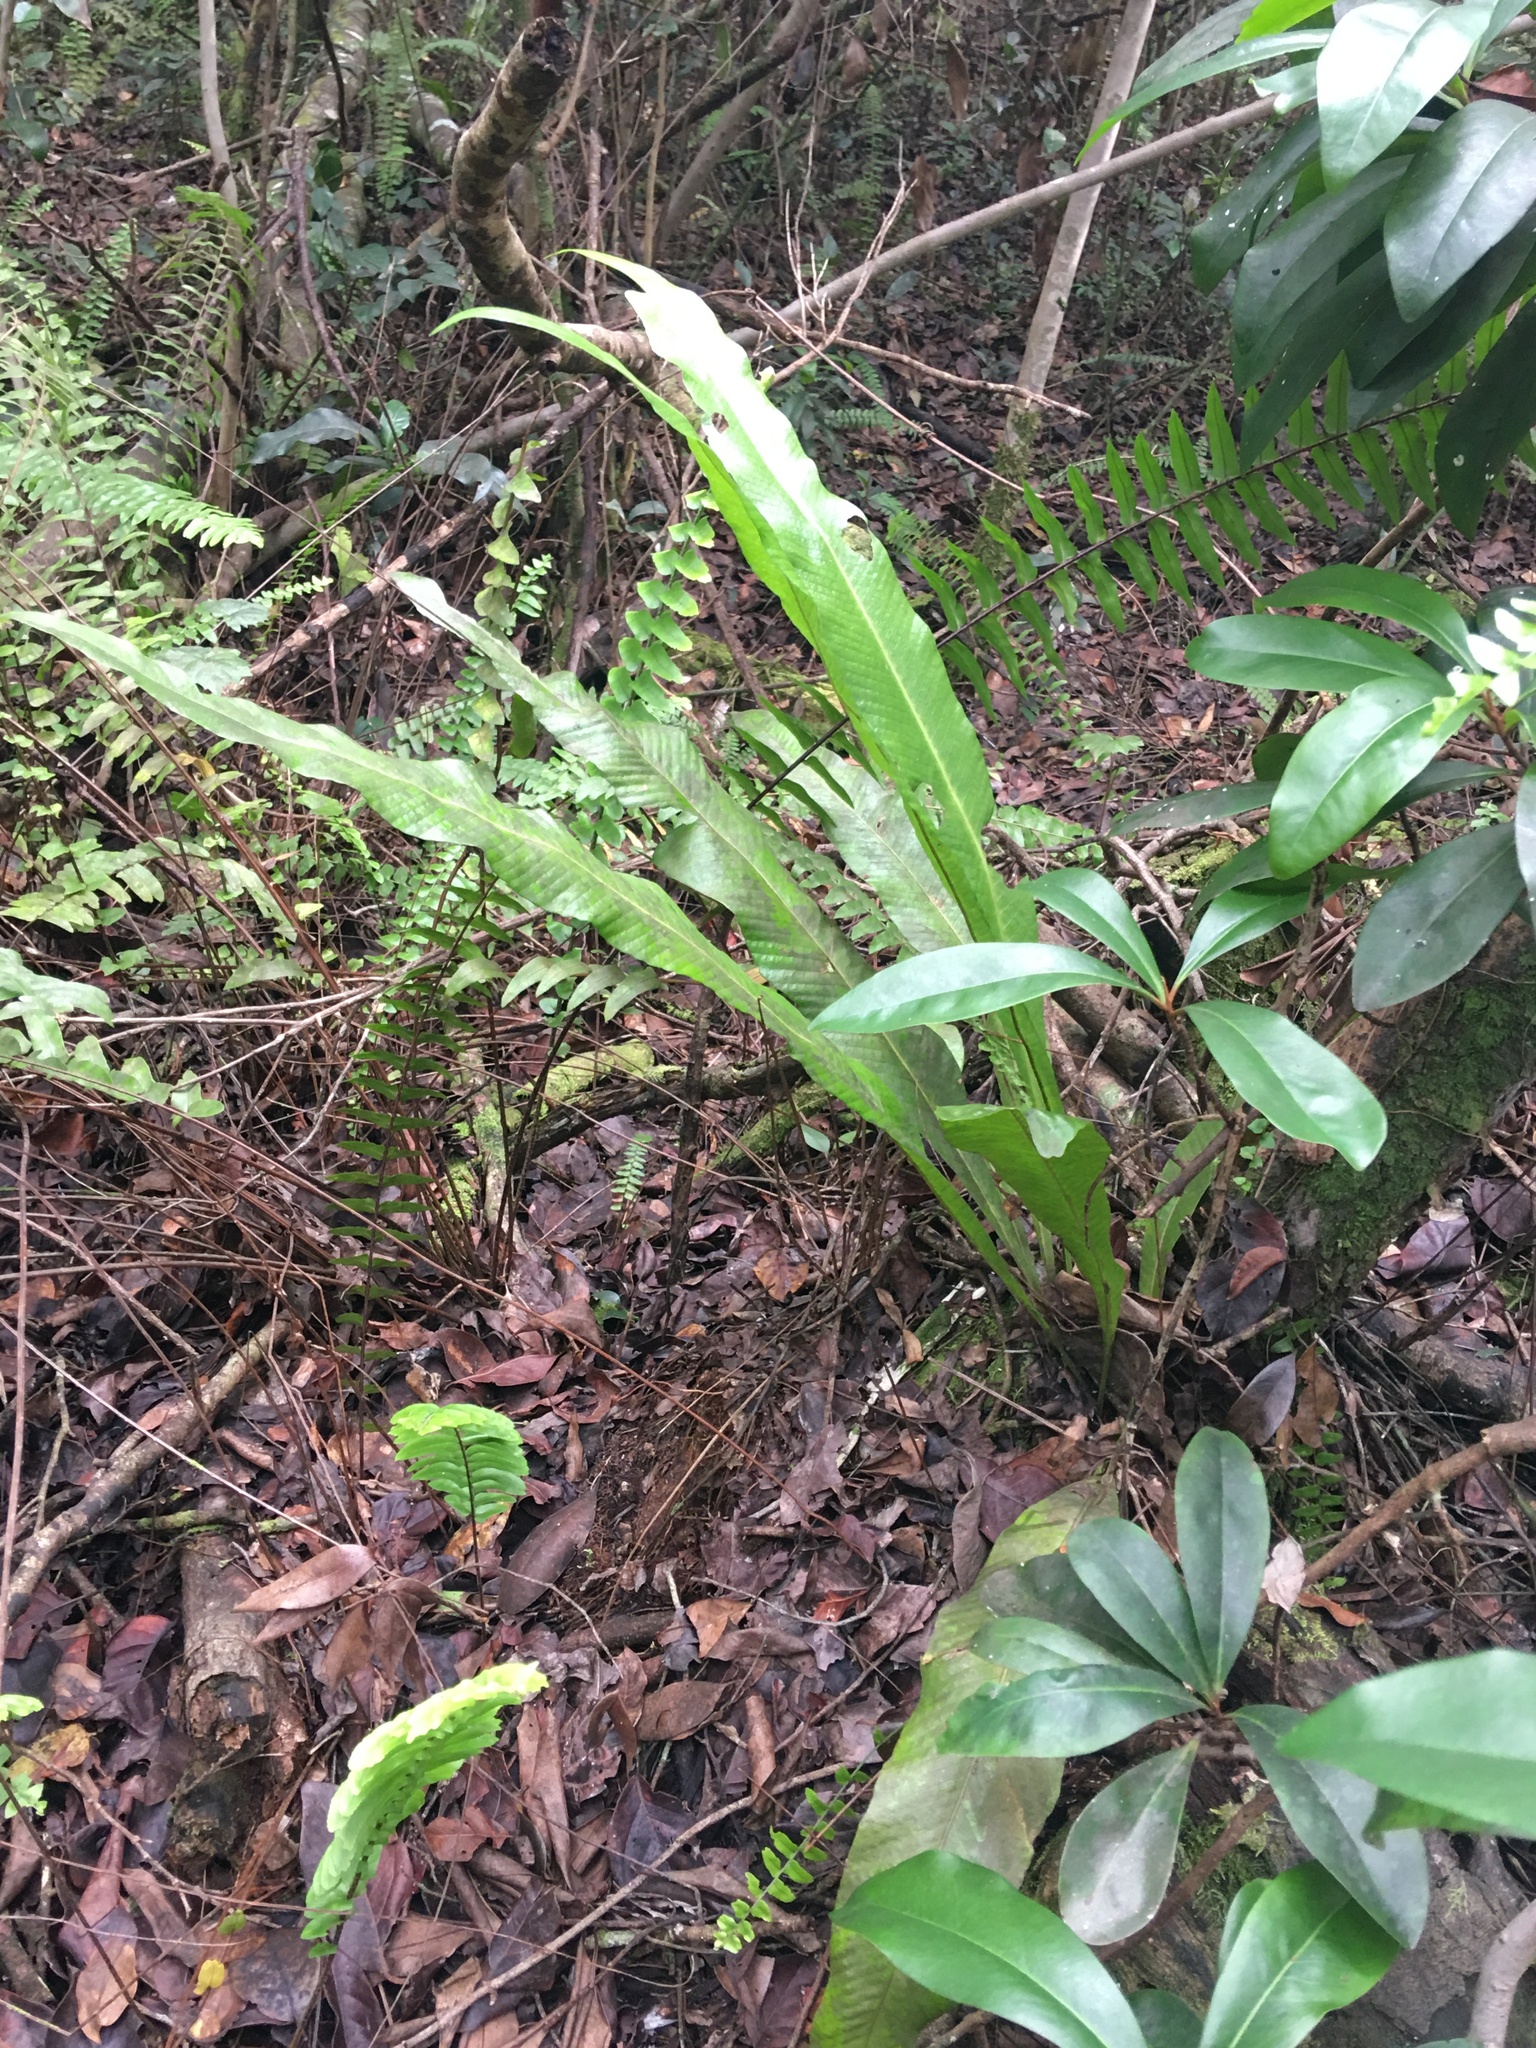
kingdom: Plantae
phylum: Tracheophyta
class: Polypodiopsida
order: Polypodiales
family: Polypodiaceae
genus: Campyloneurum
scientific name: Campyloneurum phyllitidis
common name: Cow-tongue fern
